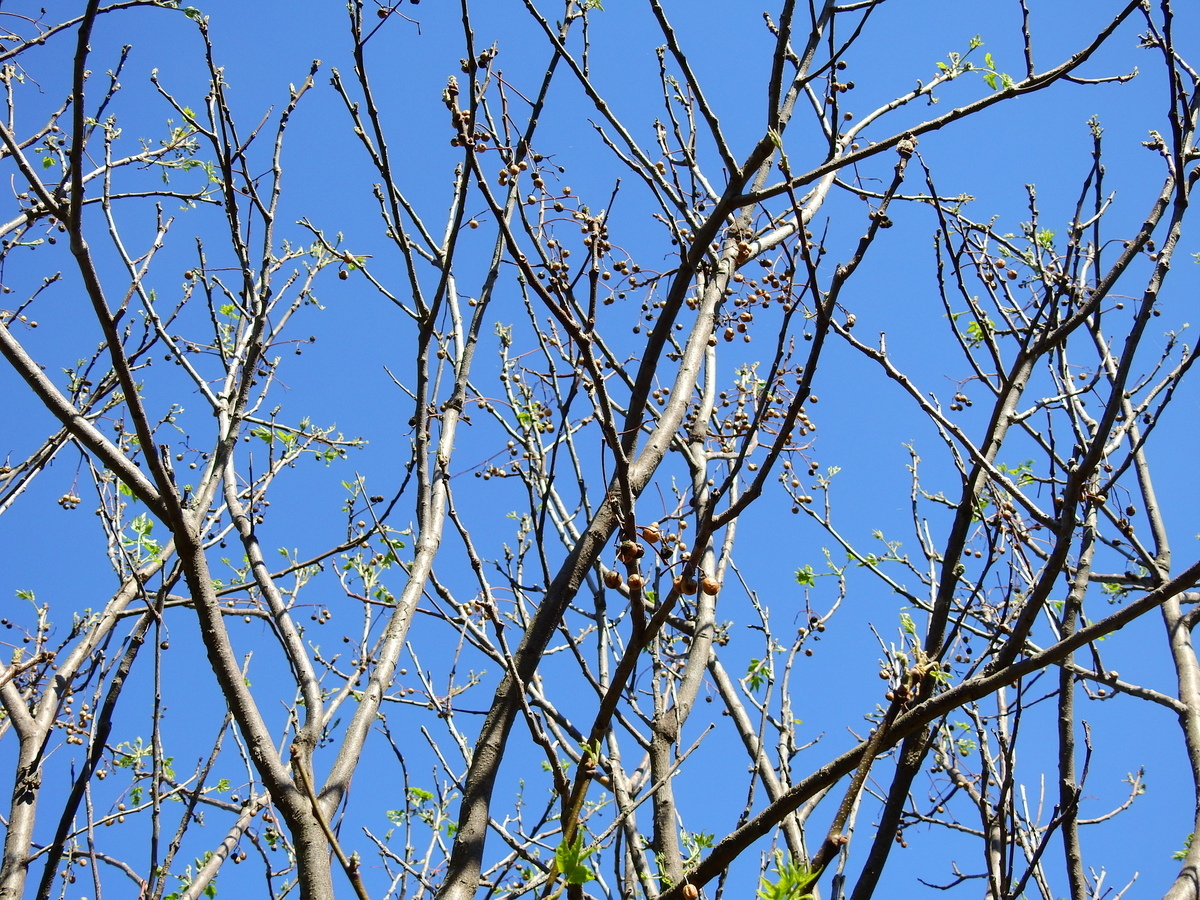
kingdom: Plantae
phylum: Tracheophyta
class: Magnoliopsida
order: Sapindales
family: Meliaceae
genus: Melia
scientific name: Melia azedarach
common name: Chinaberrytree
